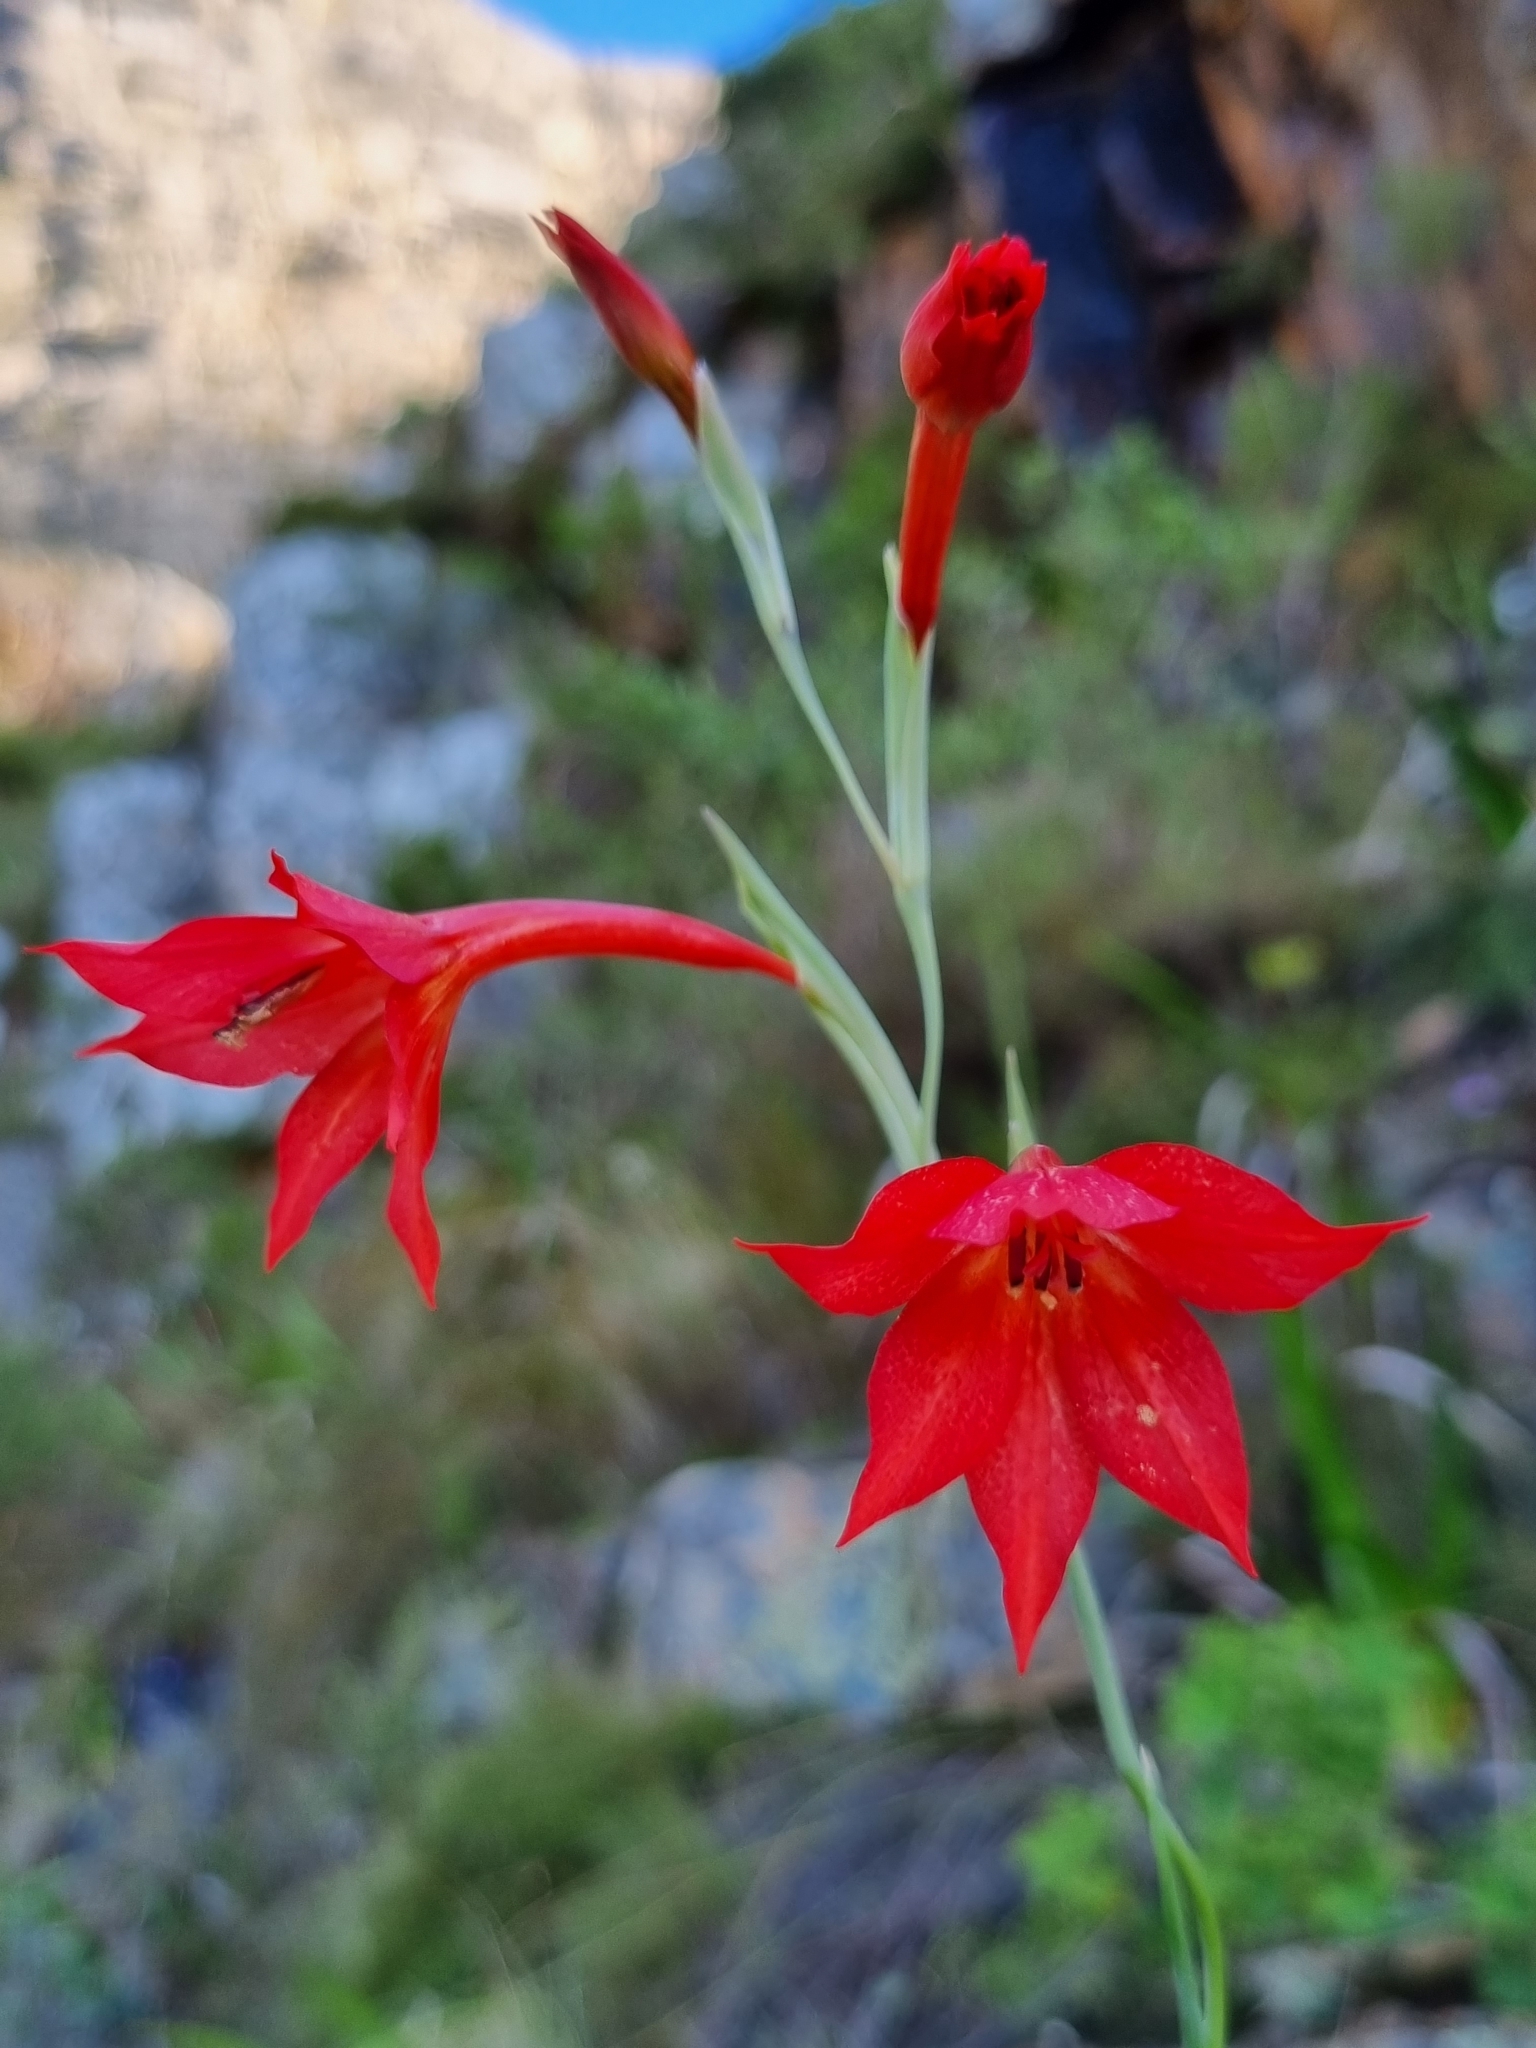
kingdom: Plantae
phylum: Tracheophyta
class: Liliopsida
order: Asparagales
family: Iridaceae
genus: Gladiolus
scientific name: Gladiolus priorii
